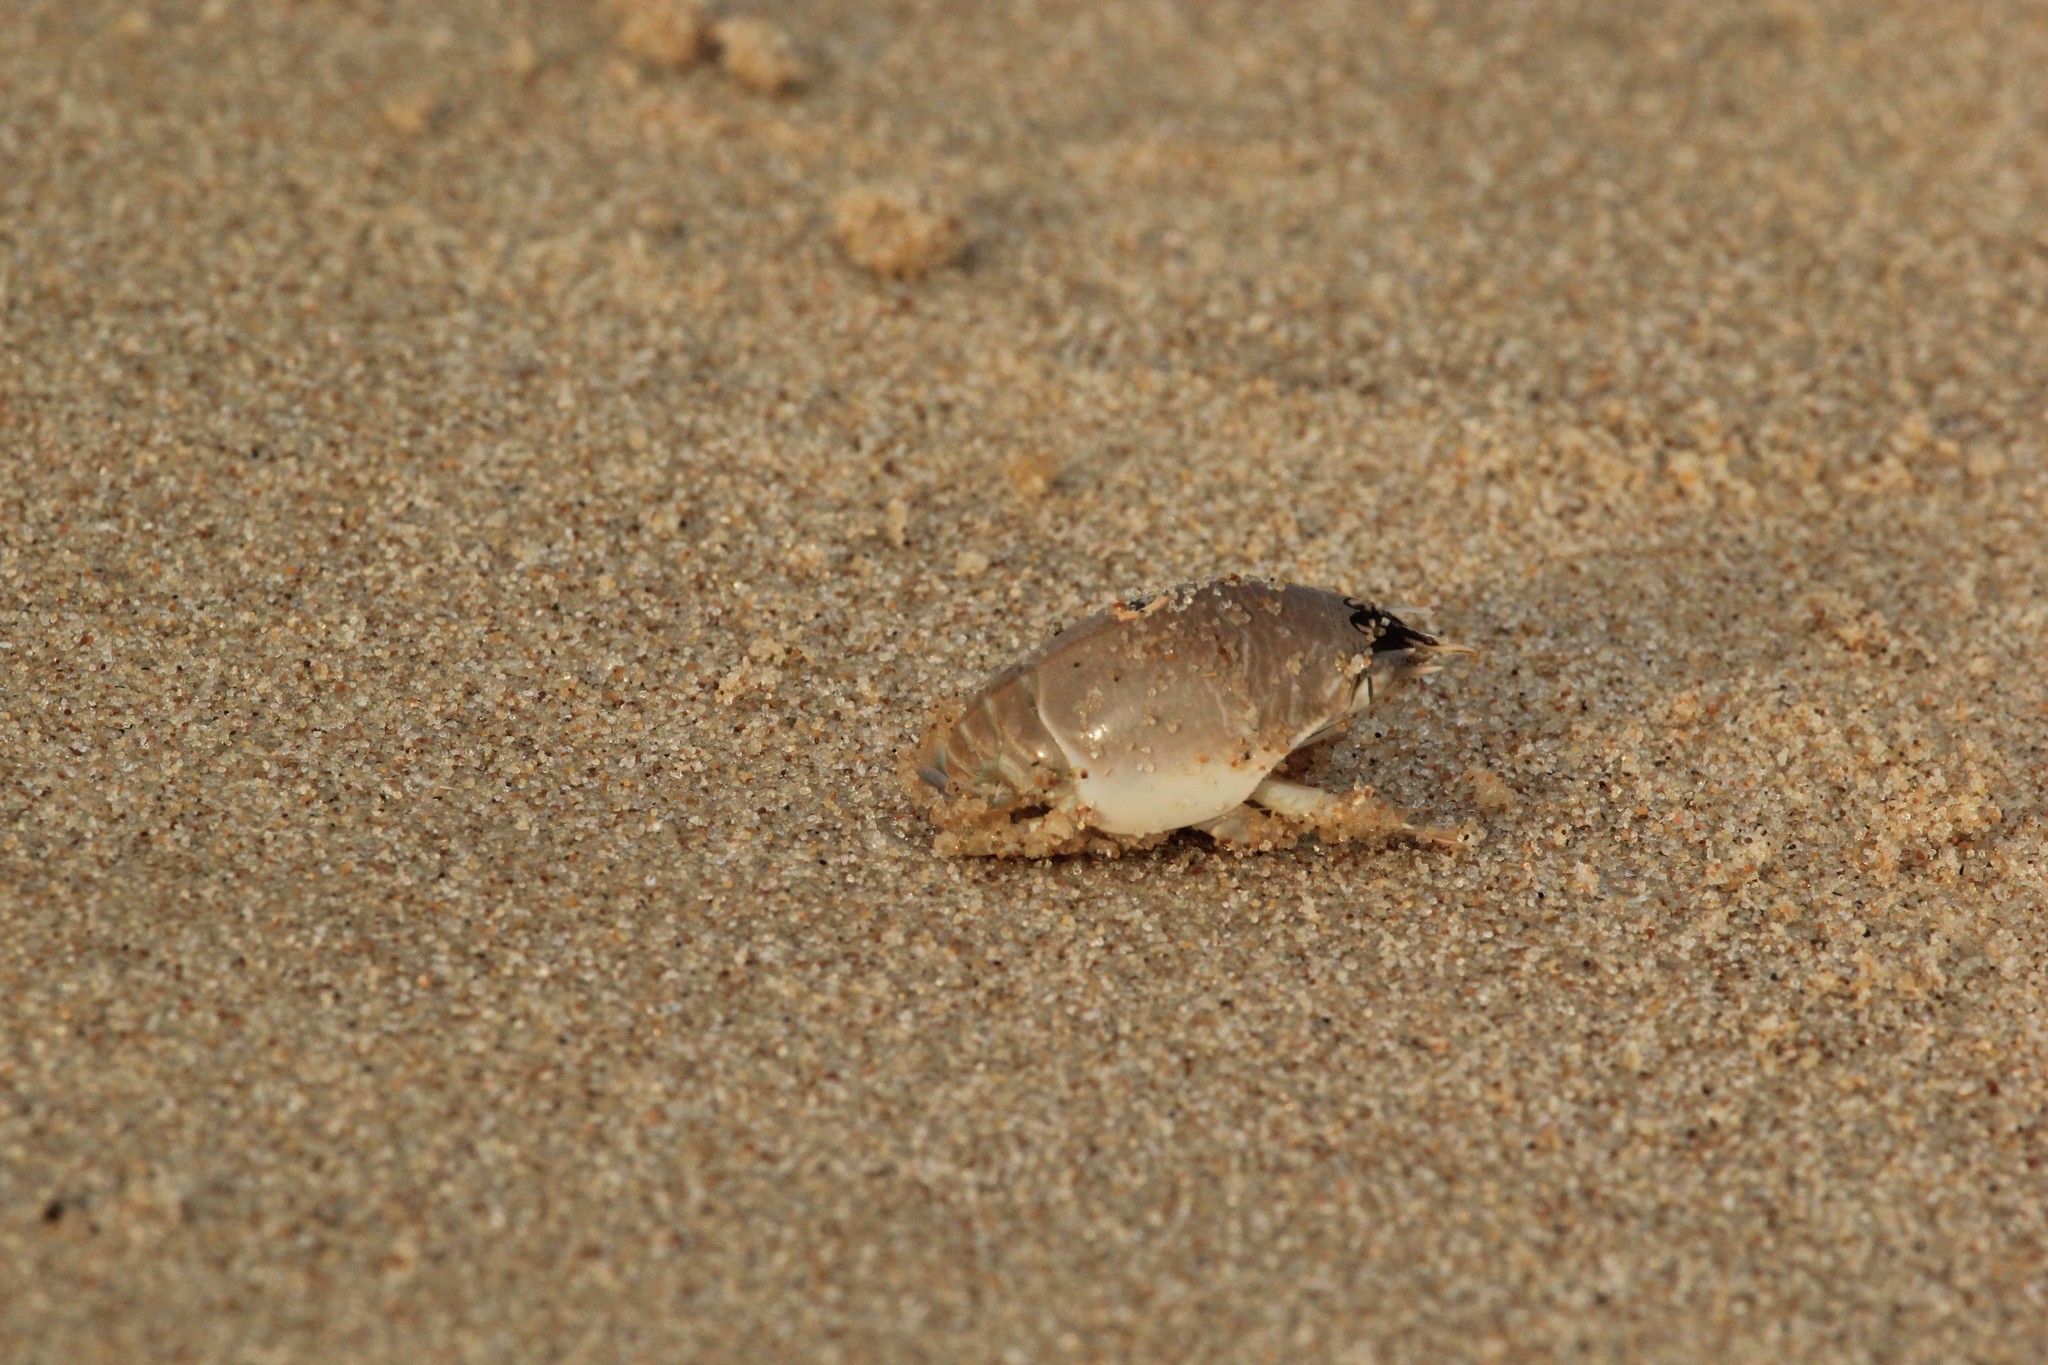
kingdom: Animalia
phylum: Arthropoda
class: Malacostraca
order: Decapoda
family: Hippidae
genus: Emerita
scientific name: Emerita brasiliensis
